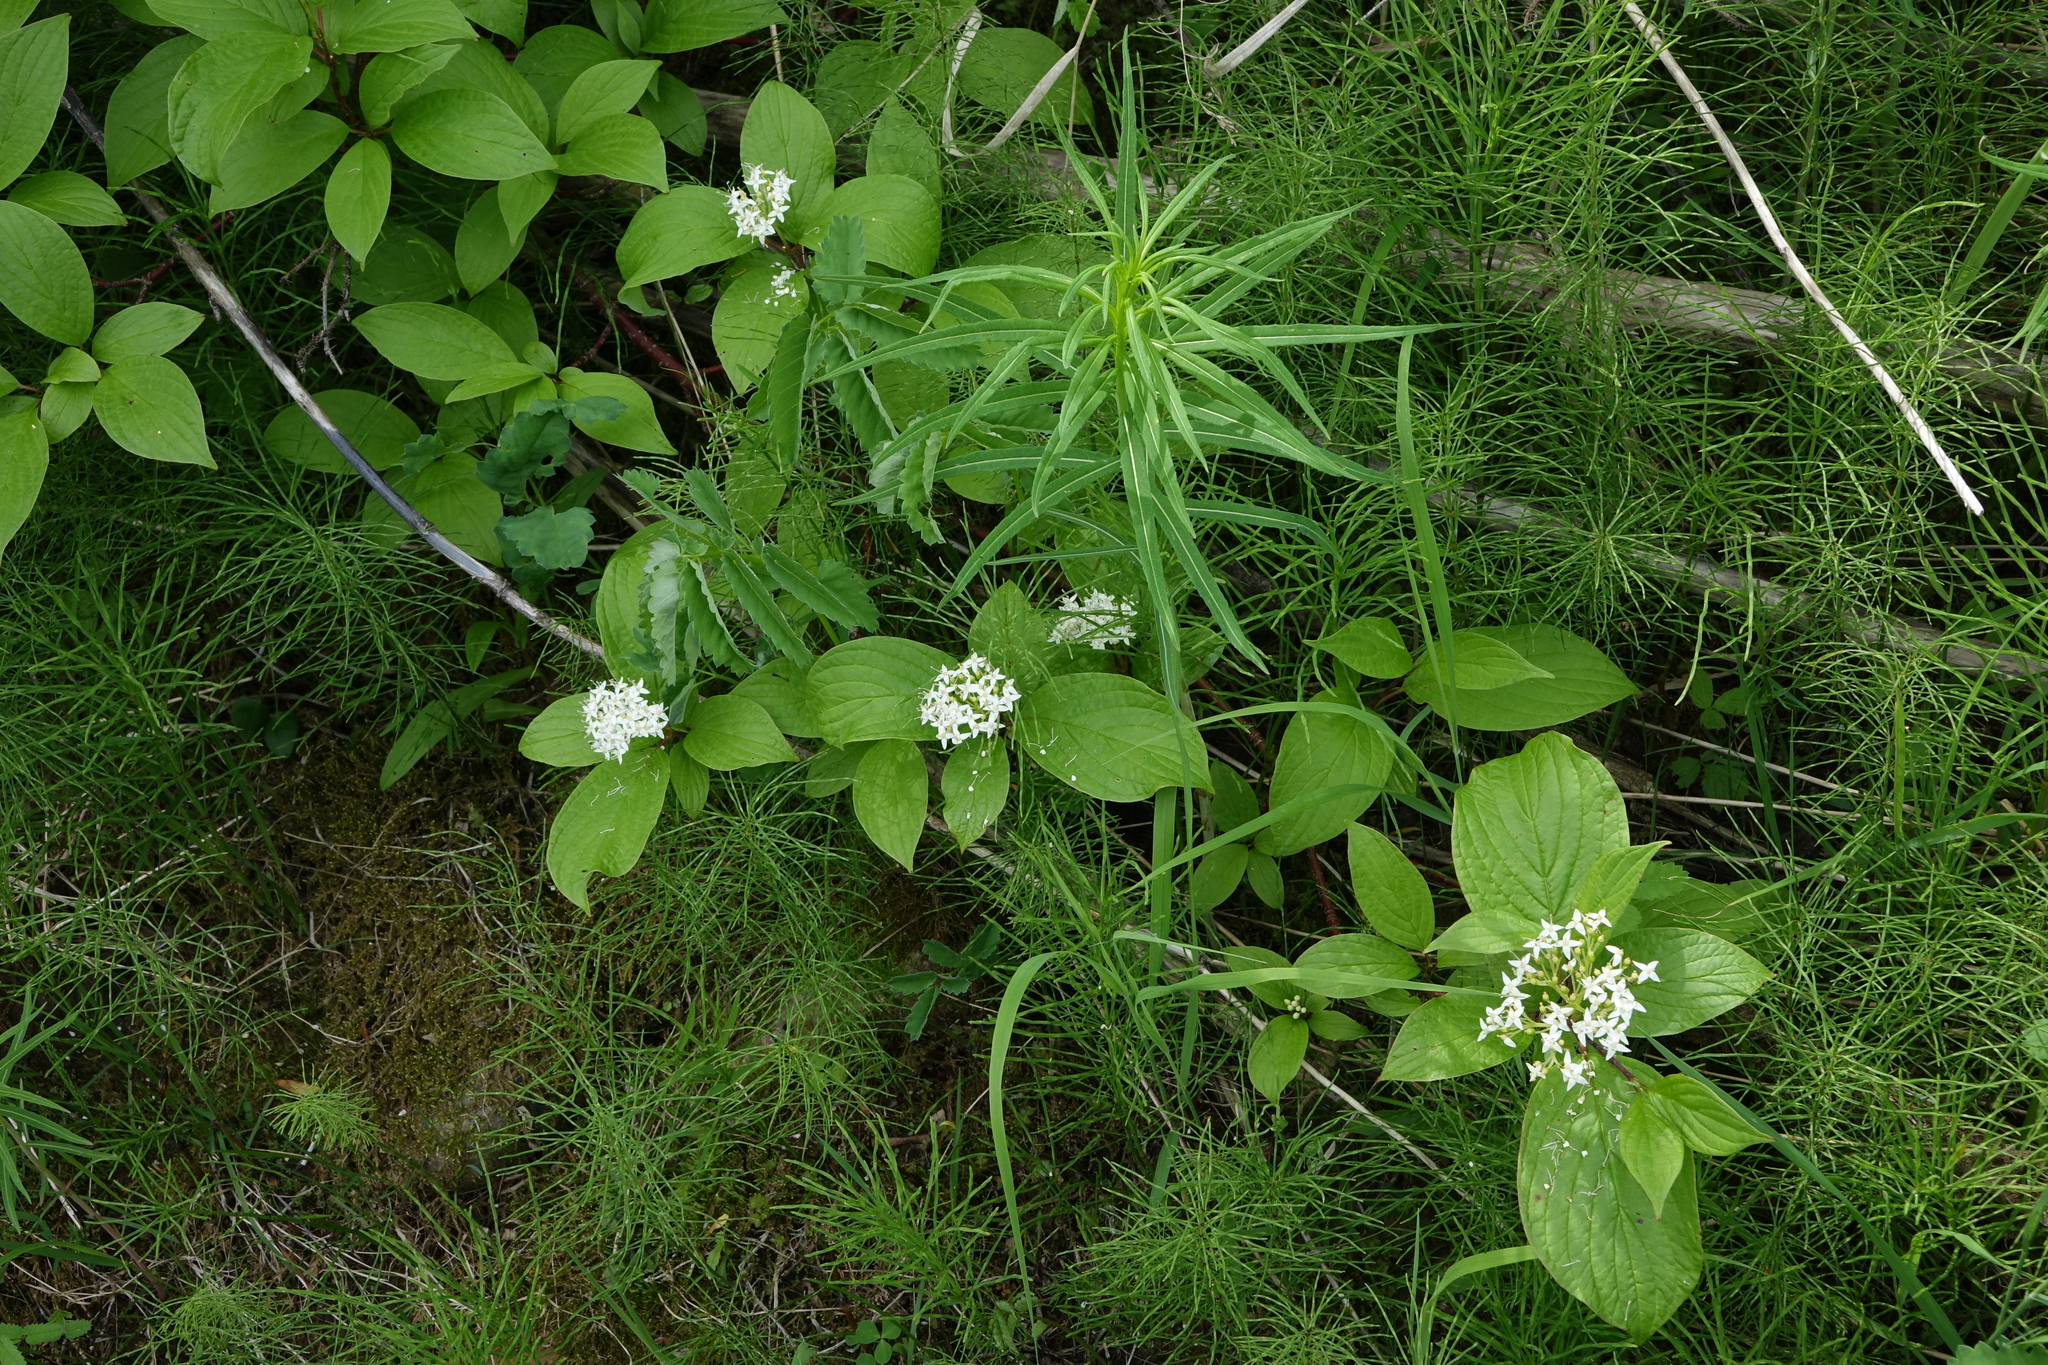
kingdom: Plantae
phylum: Tracheophyta
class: Polypodiopsida
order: Equisetales
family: Equisetaceae
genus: Equisetum
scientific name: Equisetum pratense
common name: Meadow horsetail
